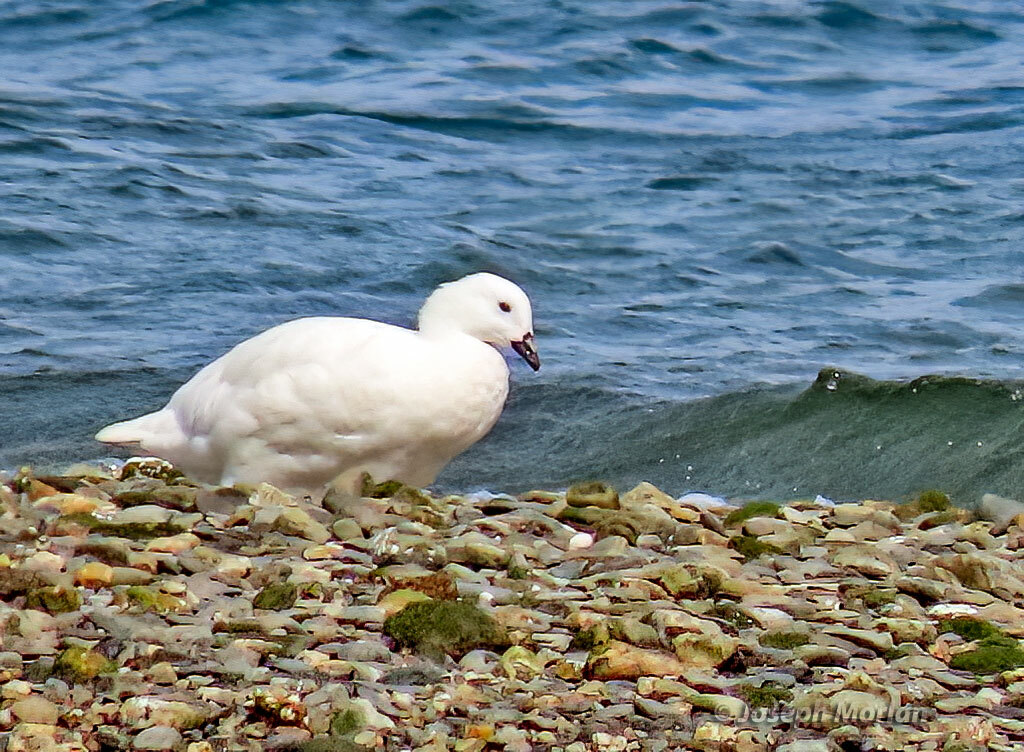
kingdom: Animalia
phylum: Chordata
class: Aves
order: Anseriformes
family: Anatidae
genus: Chloephaga
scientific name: Chloephaga hybrida
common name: Kelp goose
